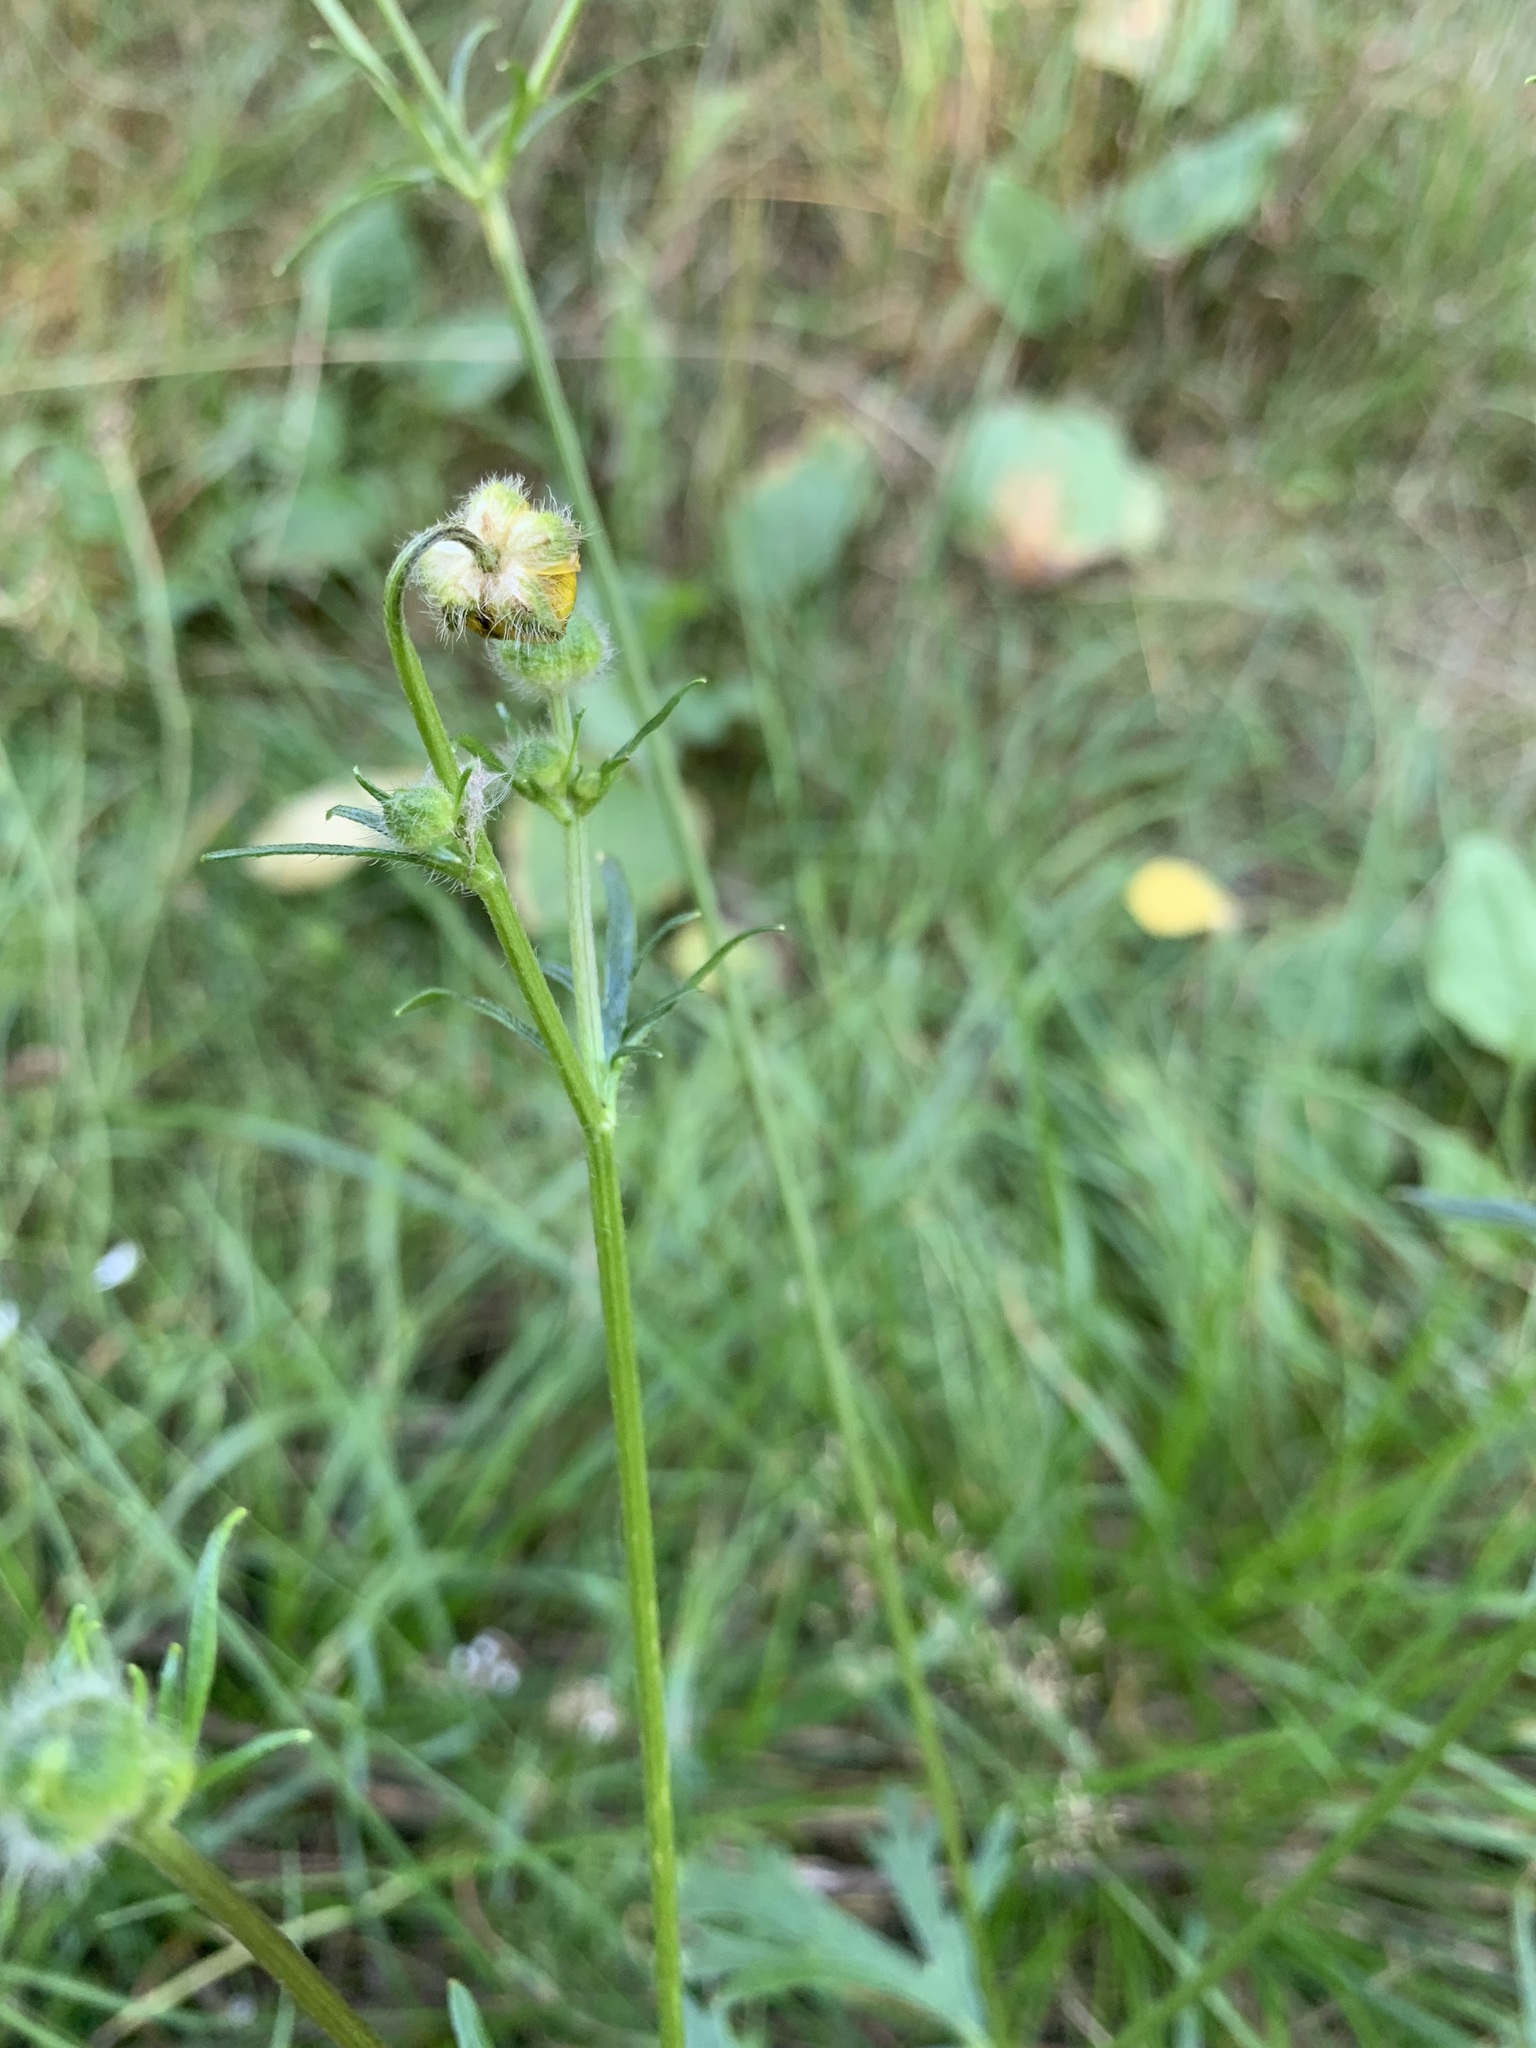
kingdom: Plantae
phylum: Tracheophyta
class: Magnoliopsida
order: Ranunculales
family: Ranunculaceae
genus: Ranunculus
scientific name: Ranunculus polyanthemos
